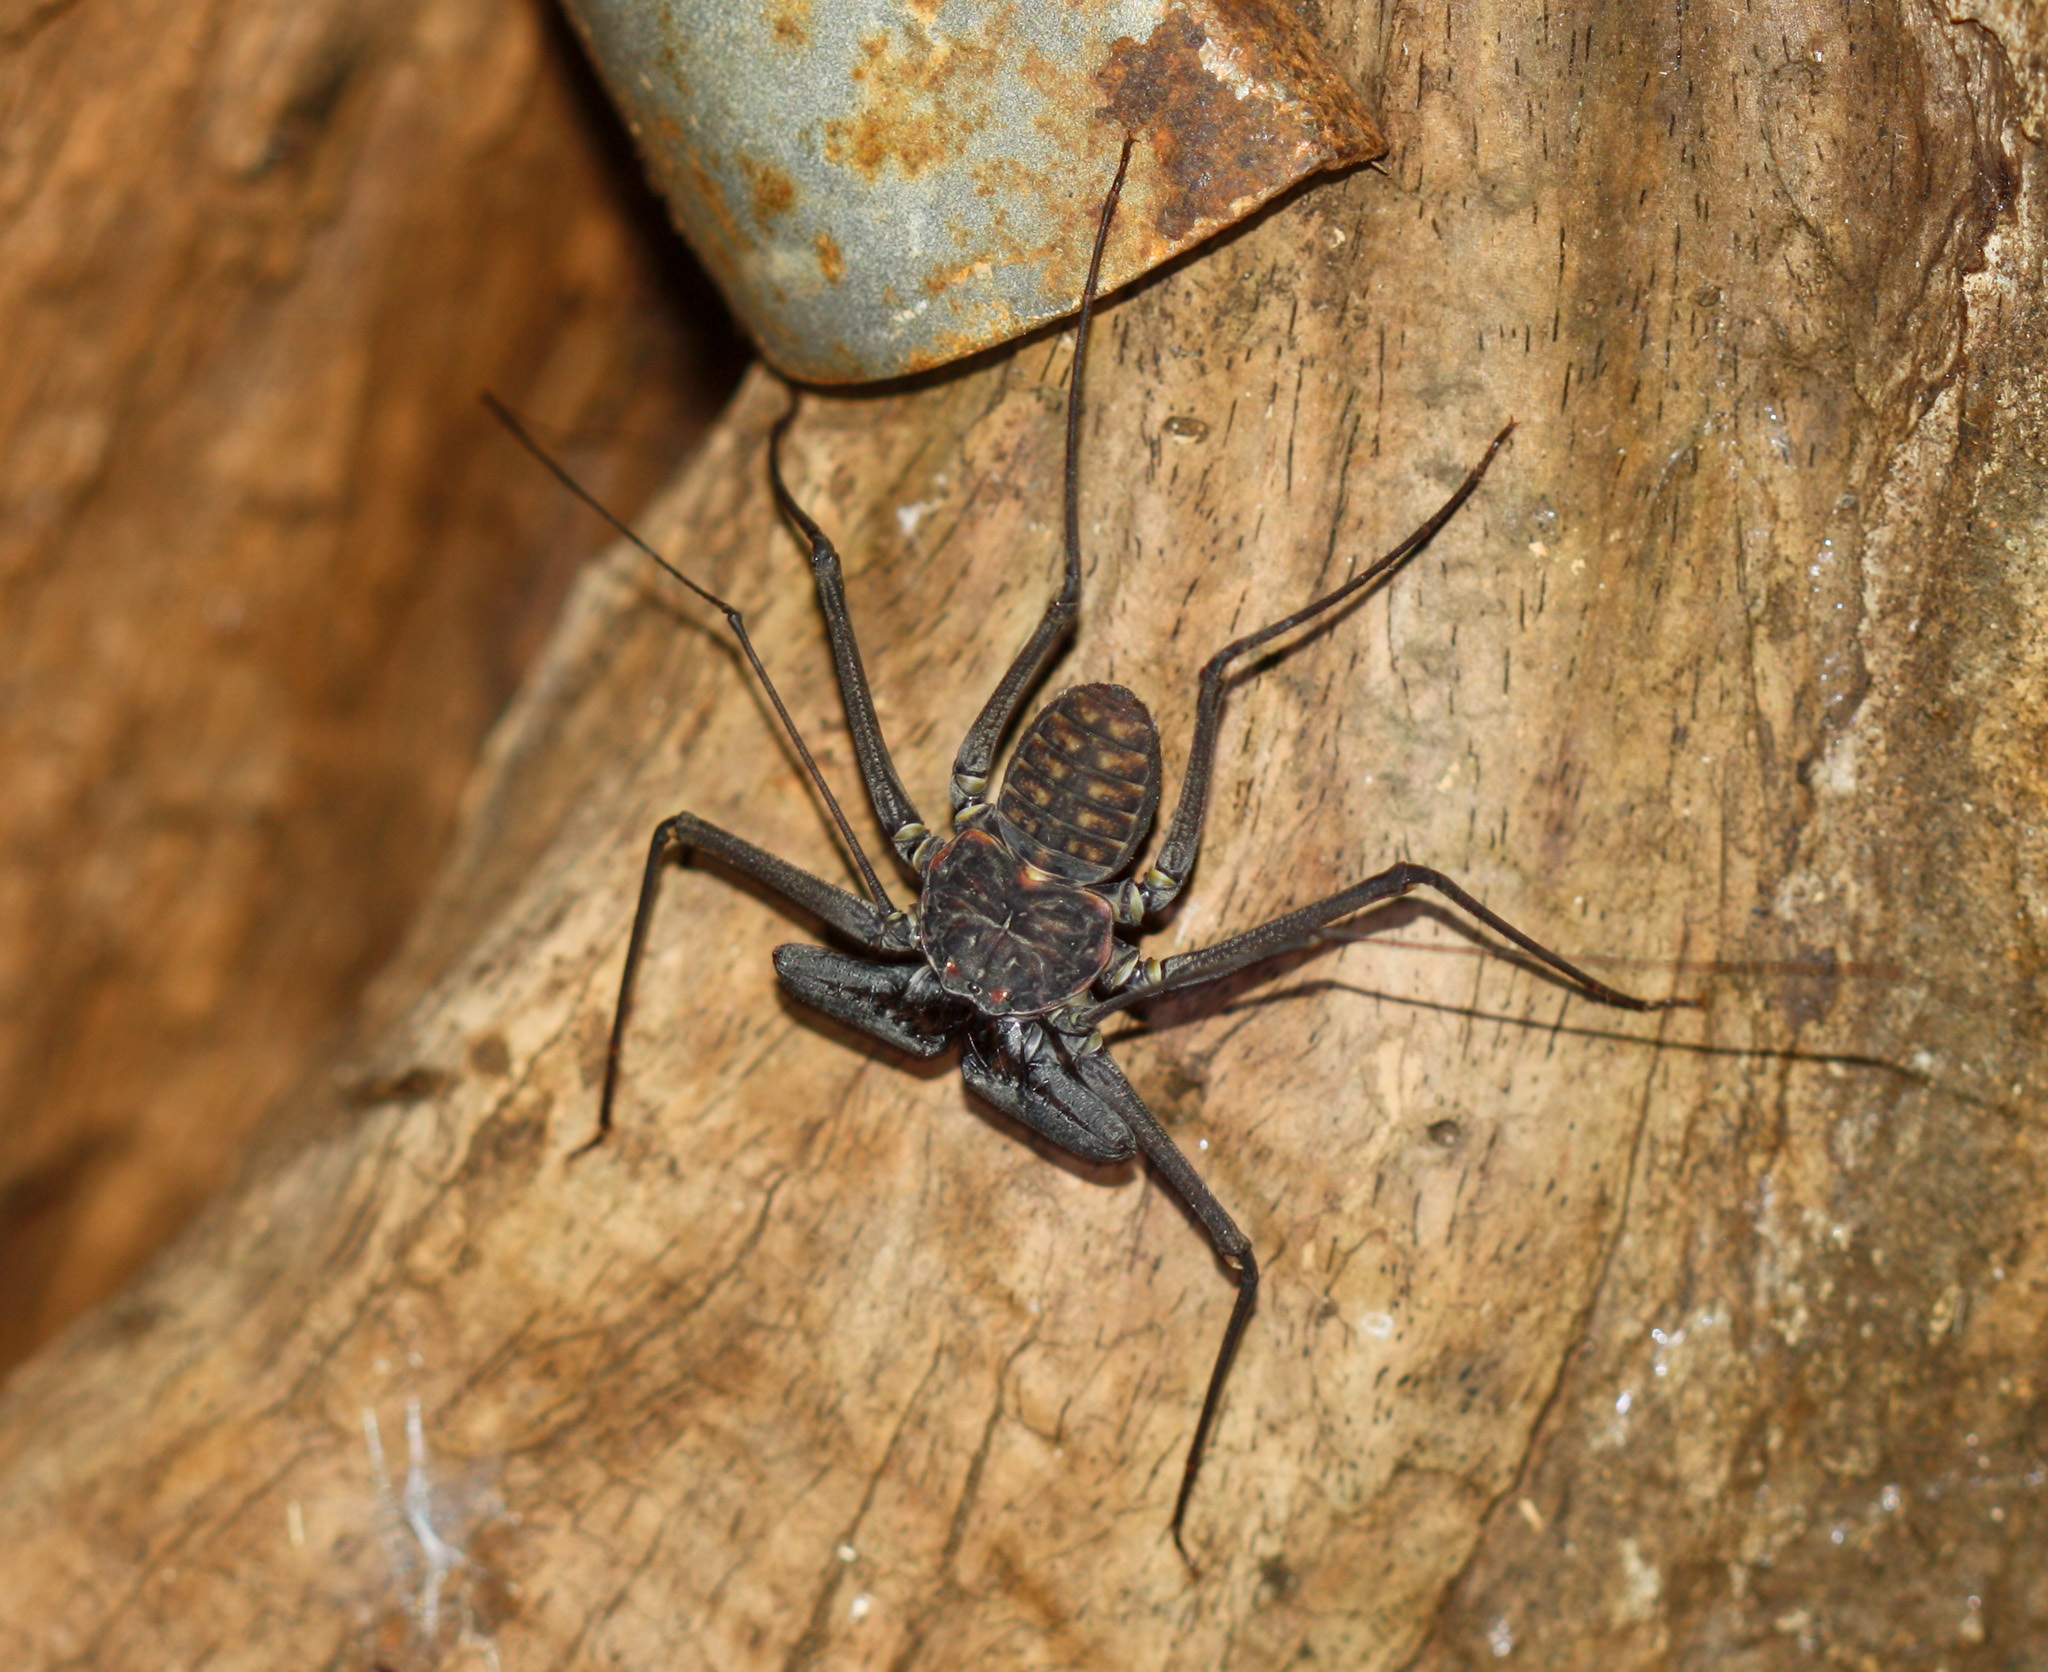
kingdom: Animalia
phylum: Arthropoda
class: Arachnida
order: Amblypygi
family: Phrynidae
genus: Phrynus
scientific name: Phrynus whitei
